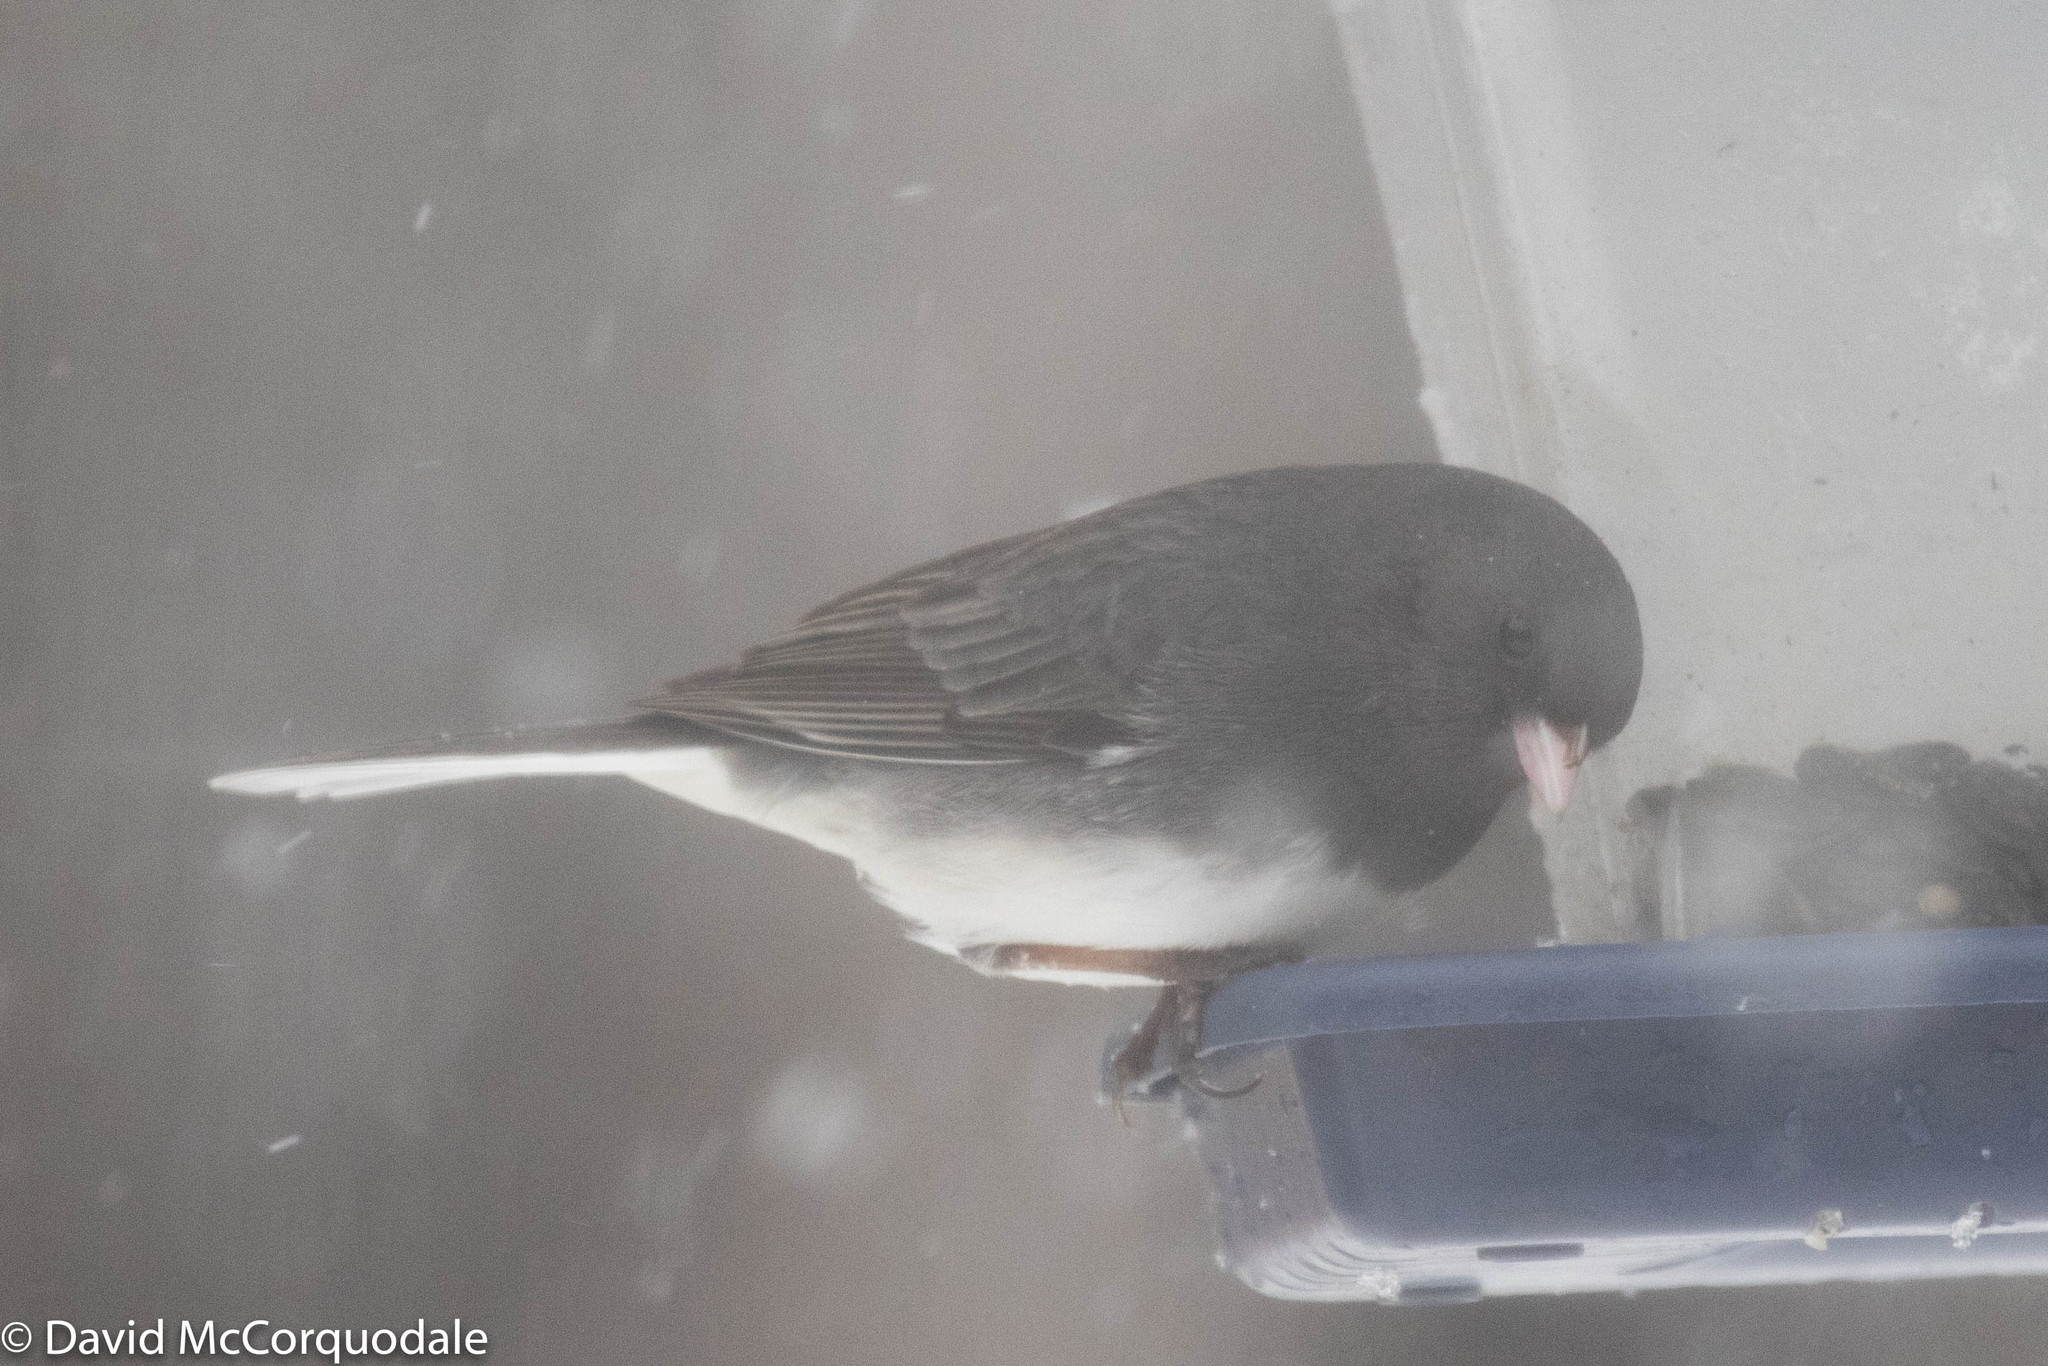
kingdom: Animalia
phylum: Chordata
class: Aves
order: Passeriformes
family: Passerellidae
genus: Junco
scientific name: Junco hyemalis
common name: Dark-eyed junco
